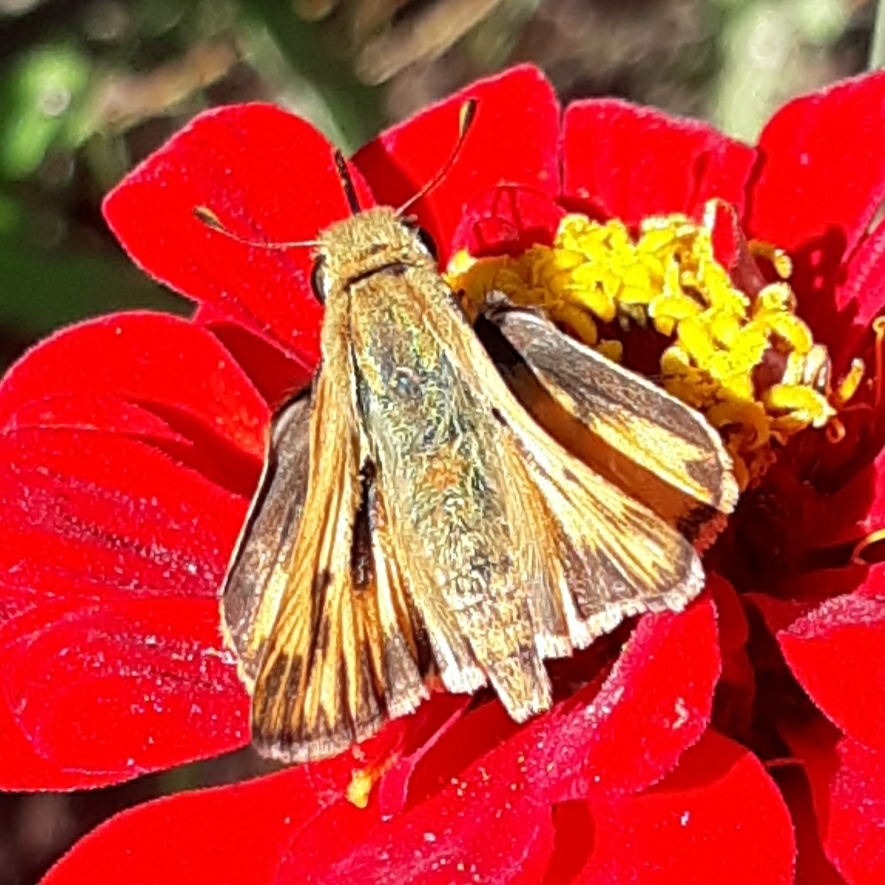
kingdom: Animalia
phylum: Arthropoda
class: Insecta
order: Lepidoptera
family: Hesperiidae
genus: Hylephila
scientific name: Hylephila phyleus
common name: Fiery skipper
